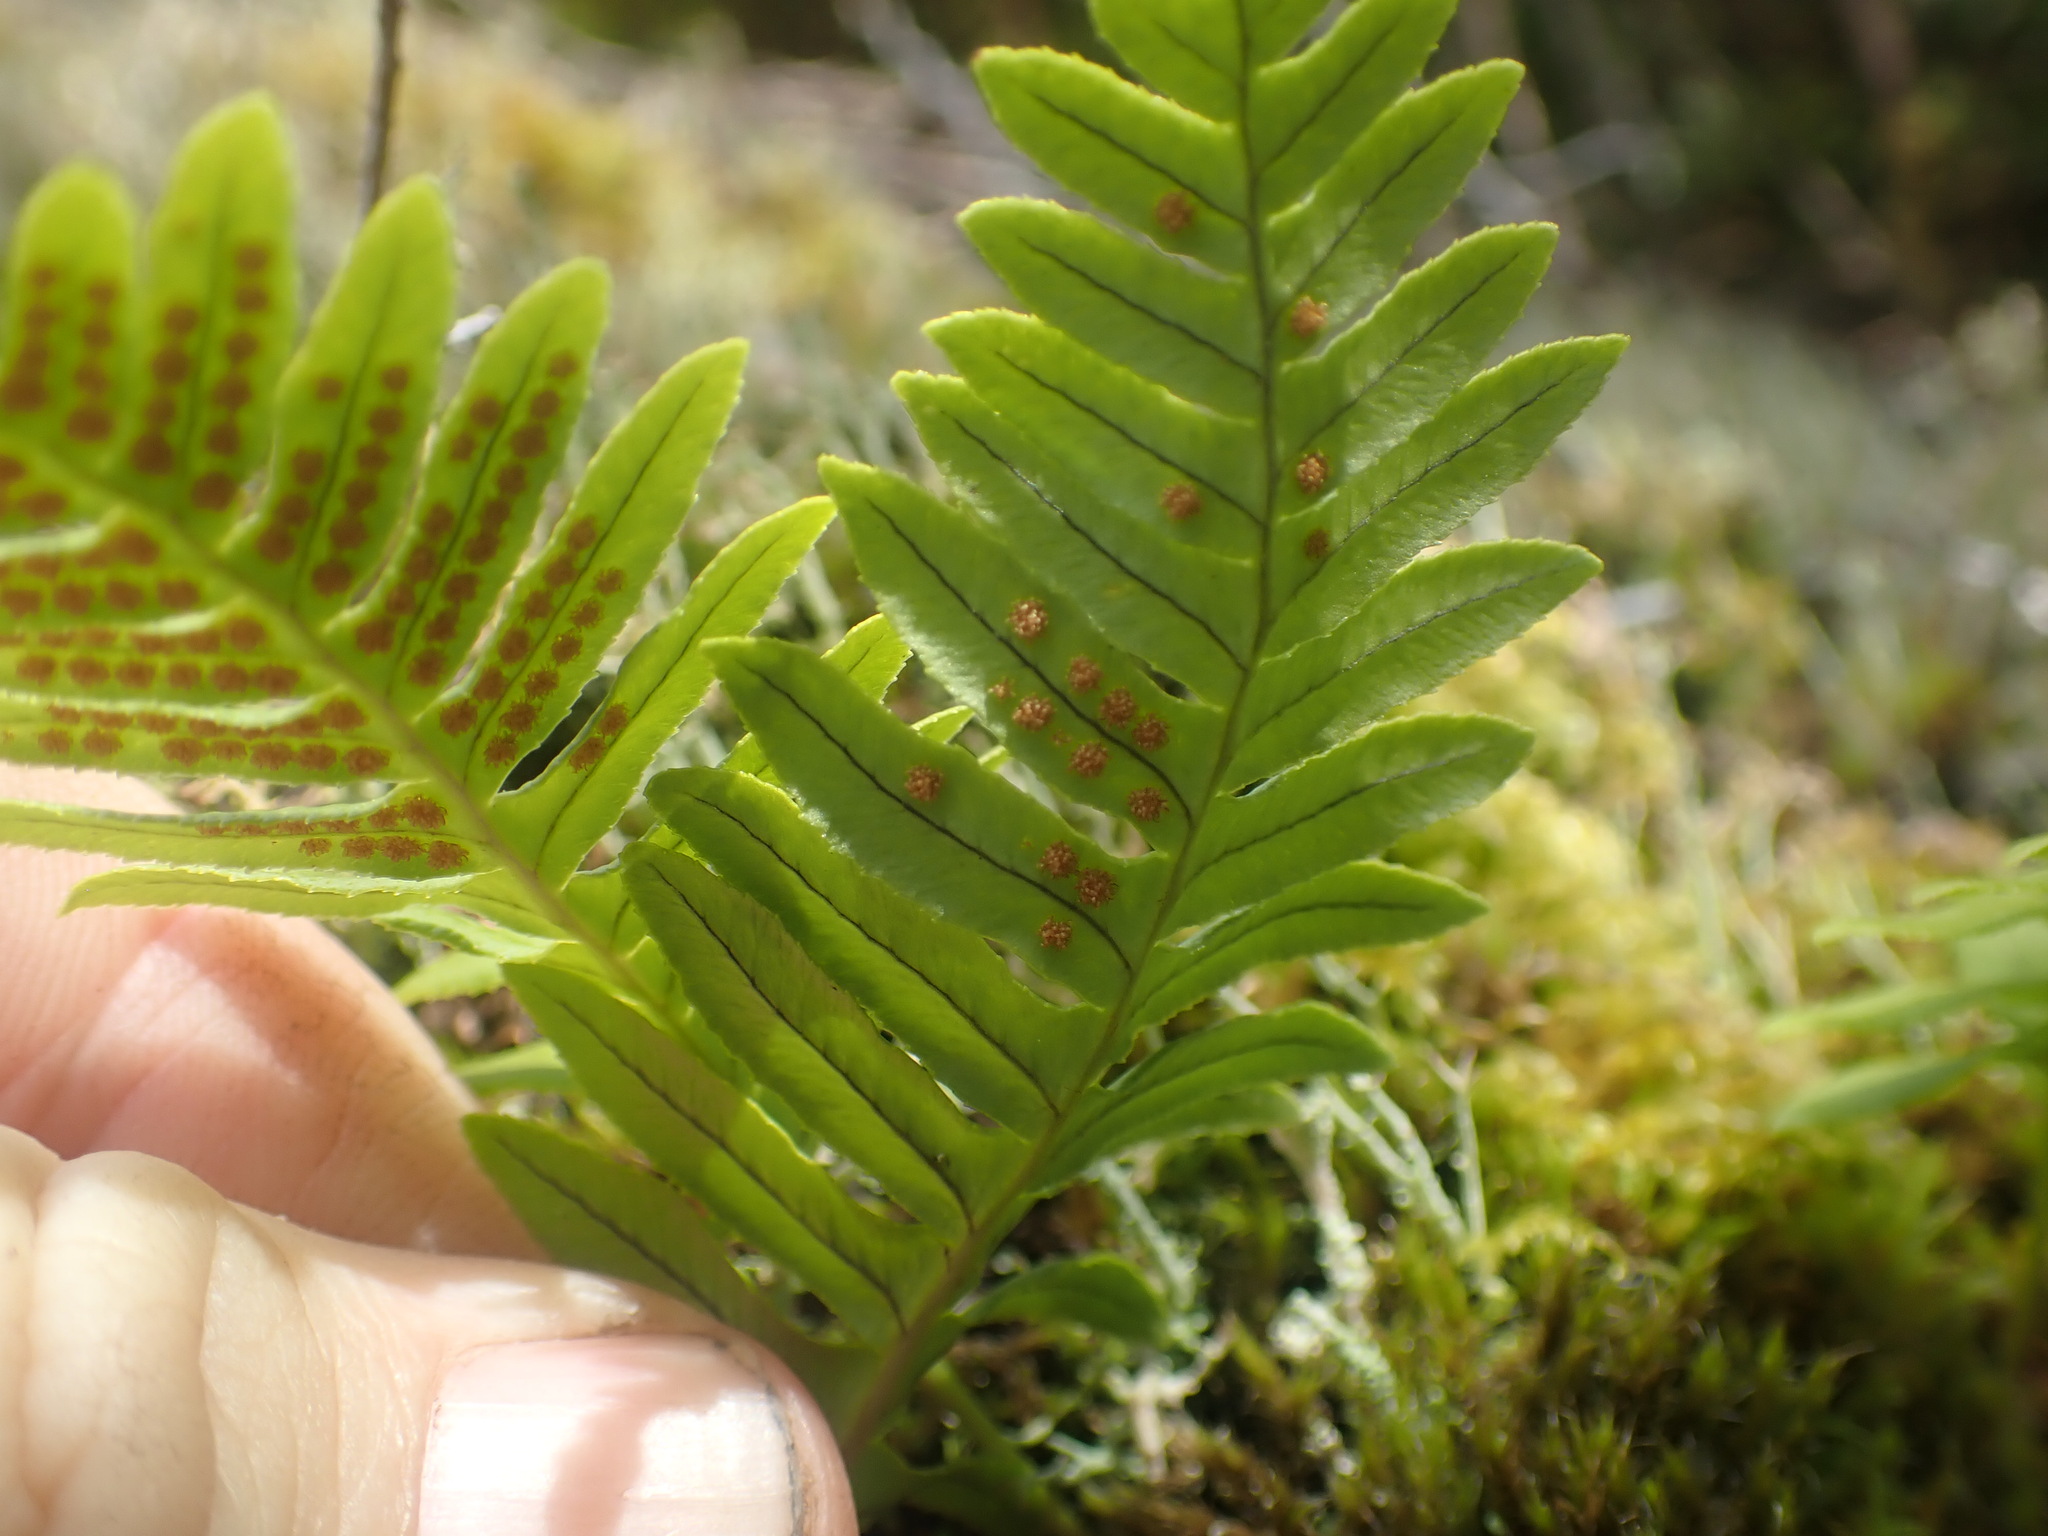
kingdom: Plantae
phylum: Tracheophyta
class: Polypodiopsida
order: Polypodiales
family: Polypodiaceae
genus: Polypodium
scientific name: Polypodium glycyrrhiza
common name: Licorice fern
